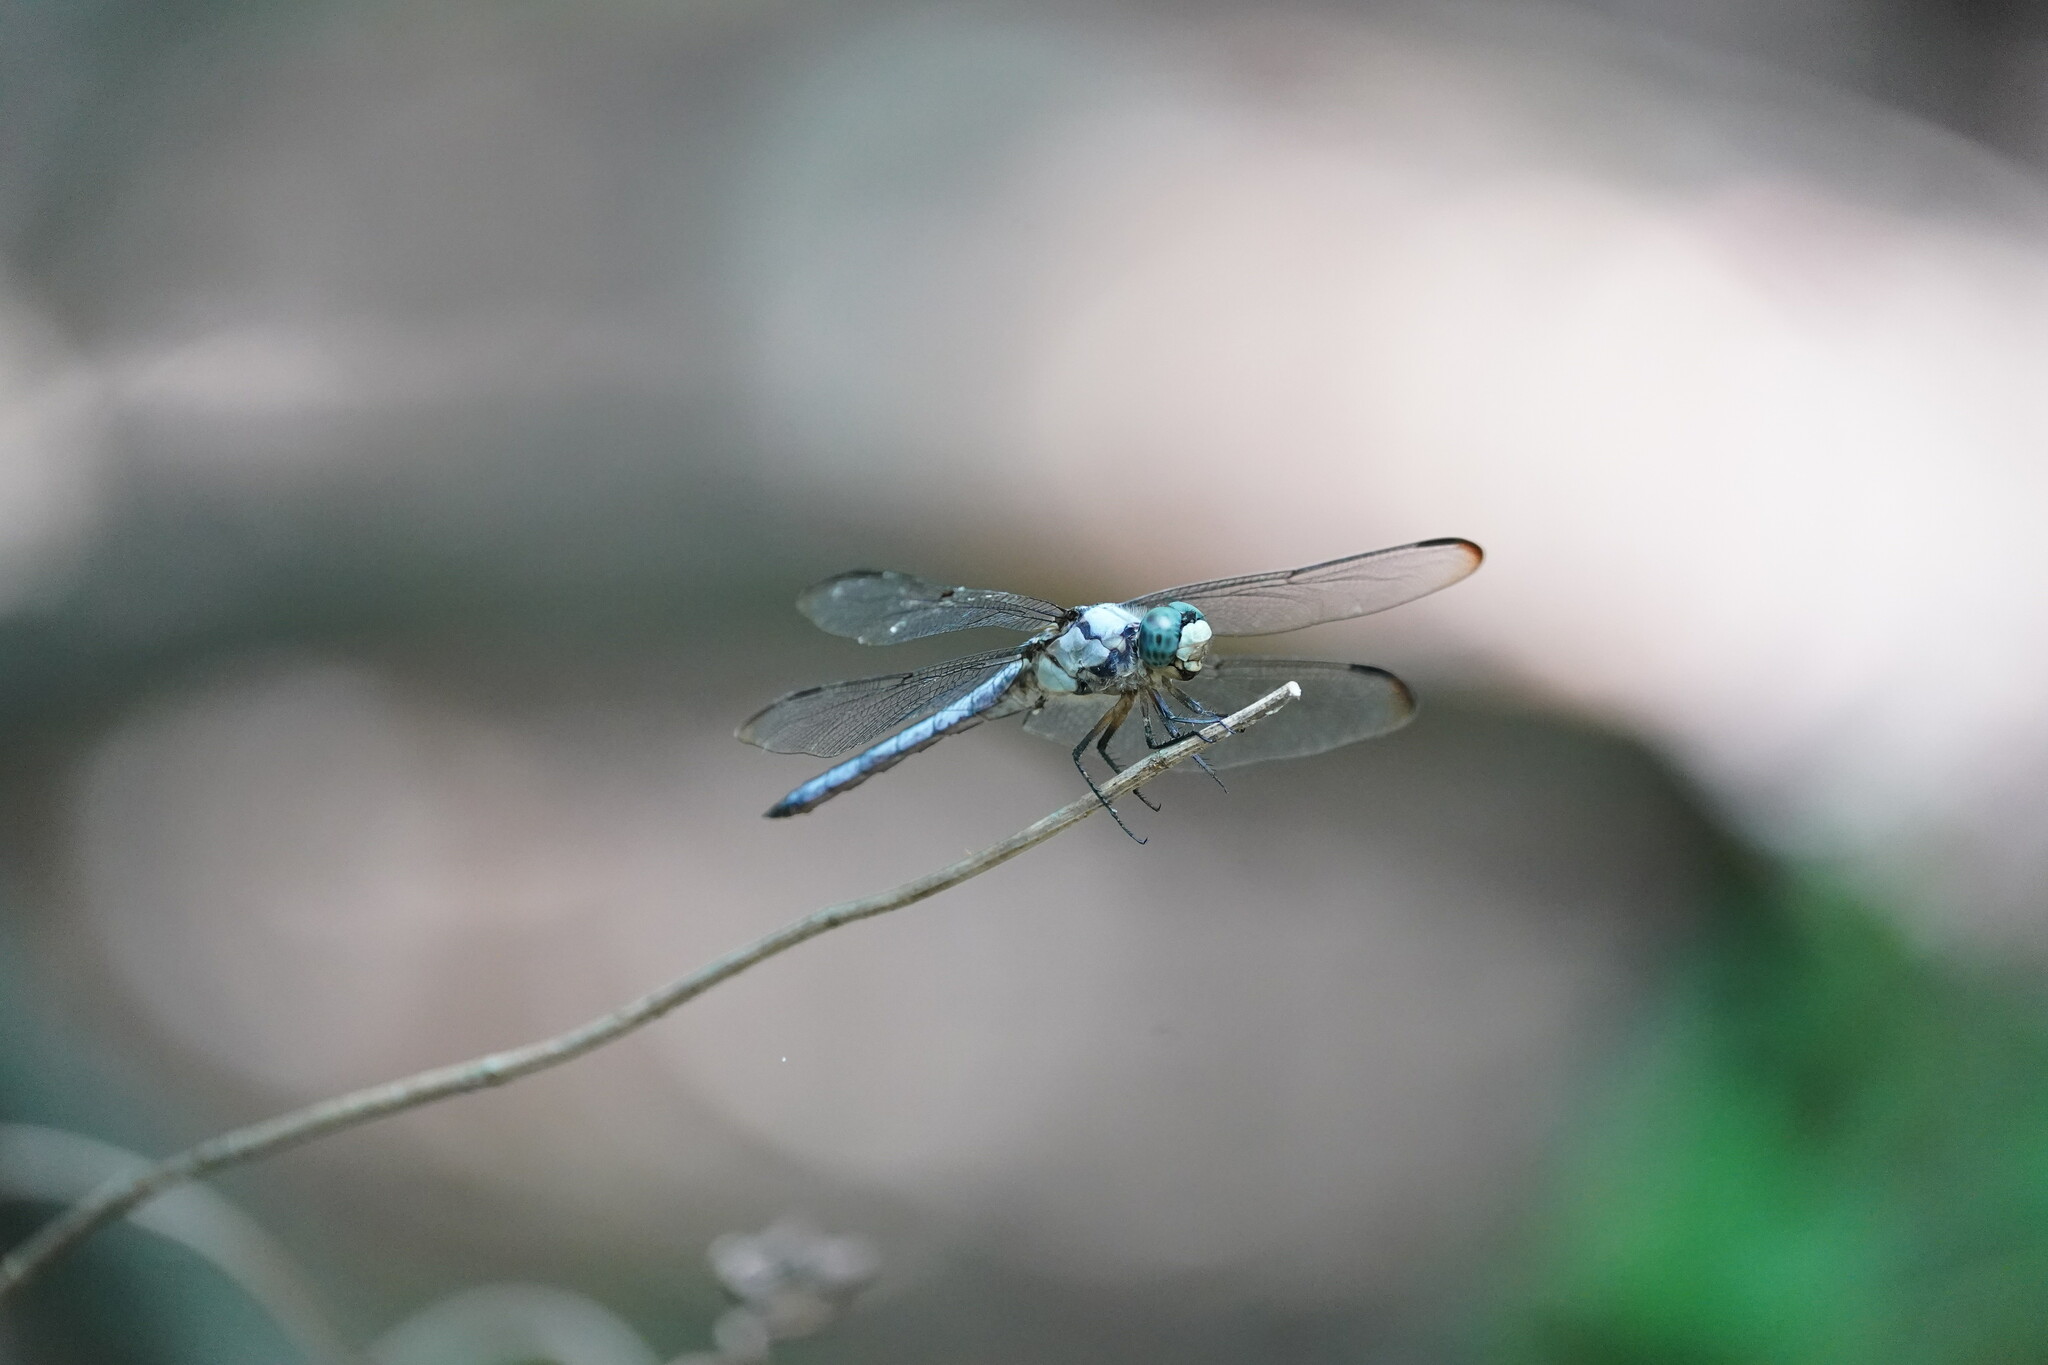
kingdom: Animalia
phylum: Arthropoda
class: Insecta
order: Odonata
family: Libellulidae
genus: Libellula
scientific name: Libellula vibrans
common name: Great blue skimmer
